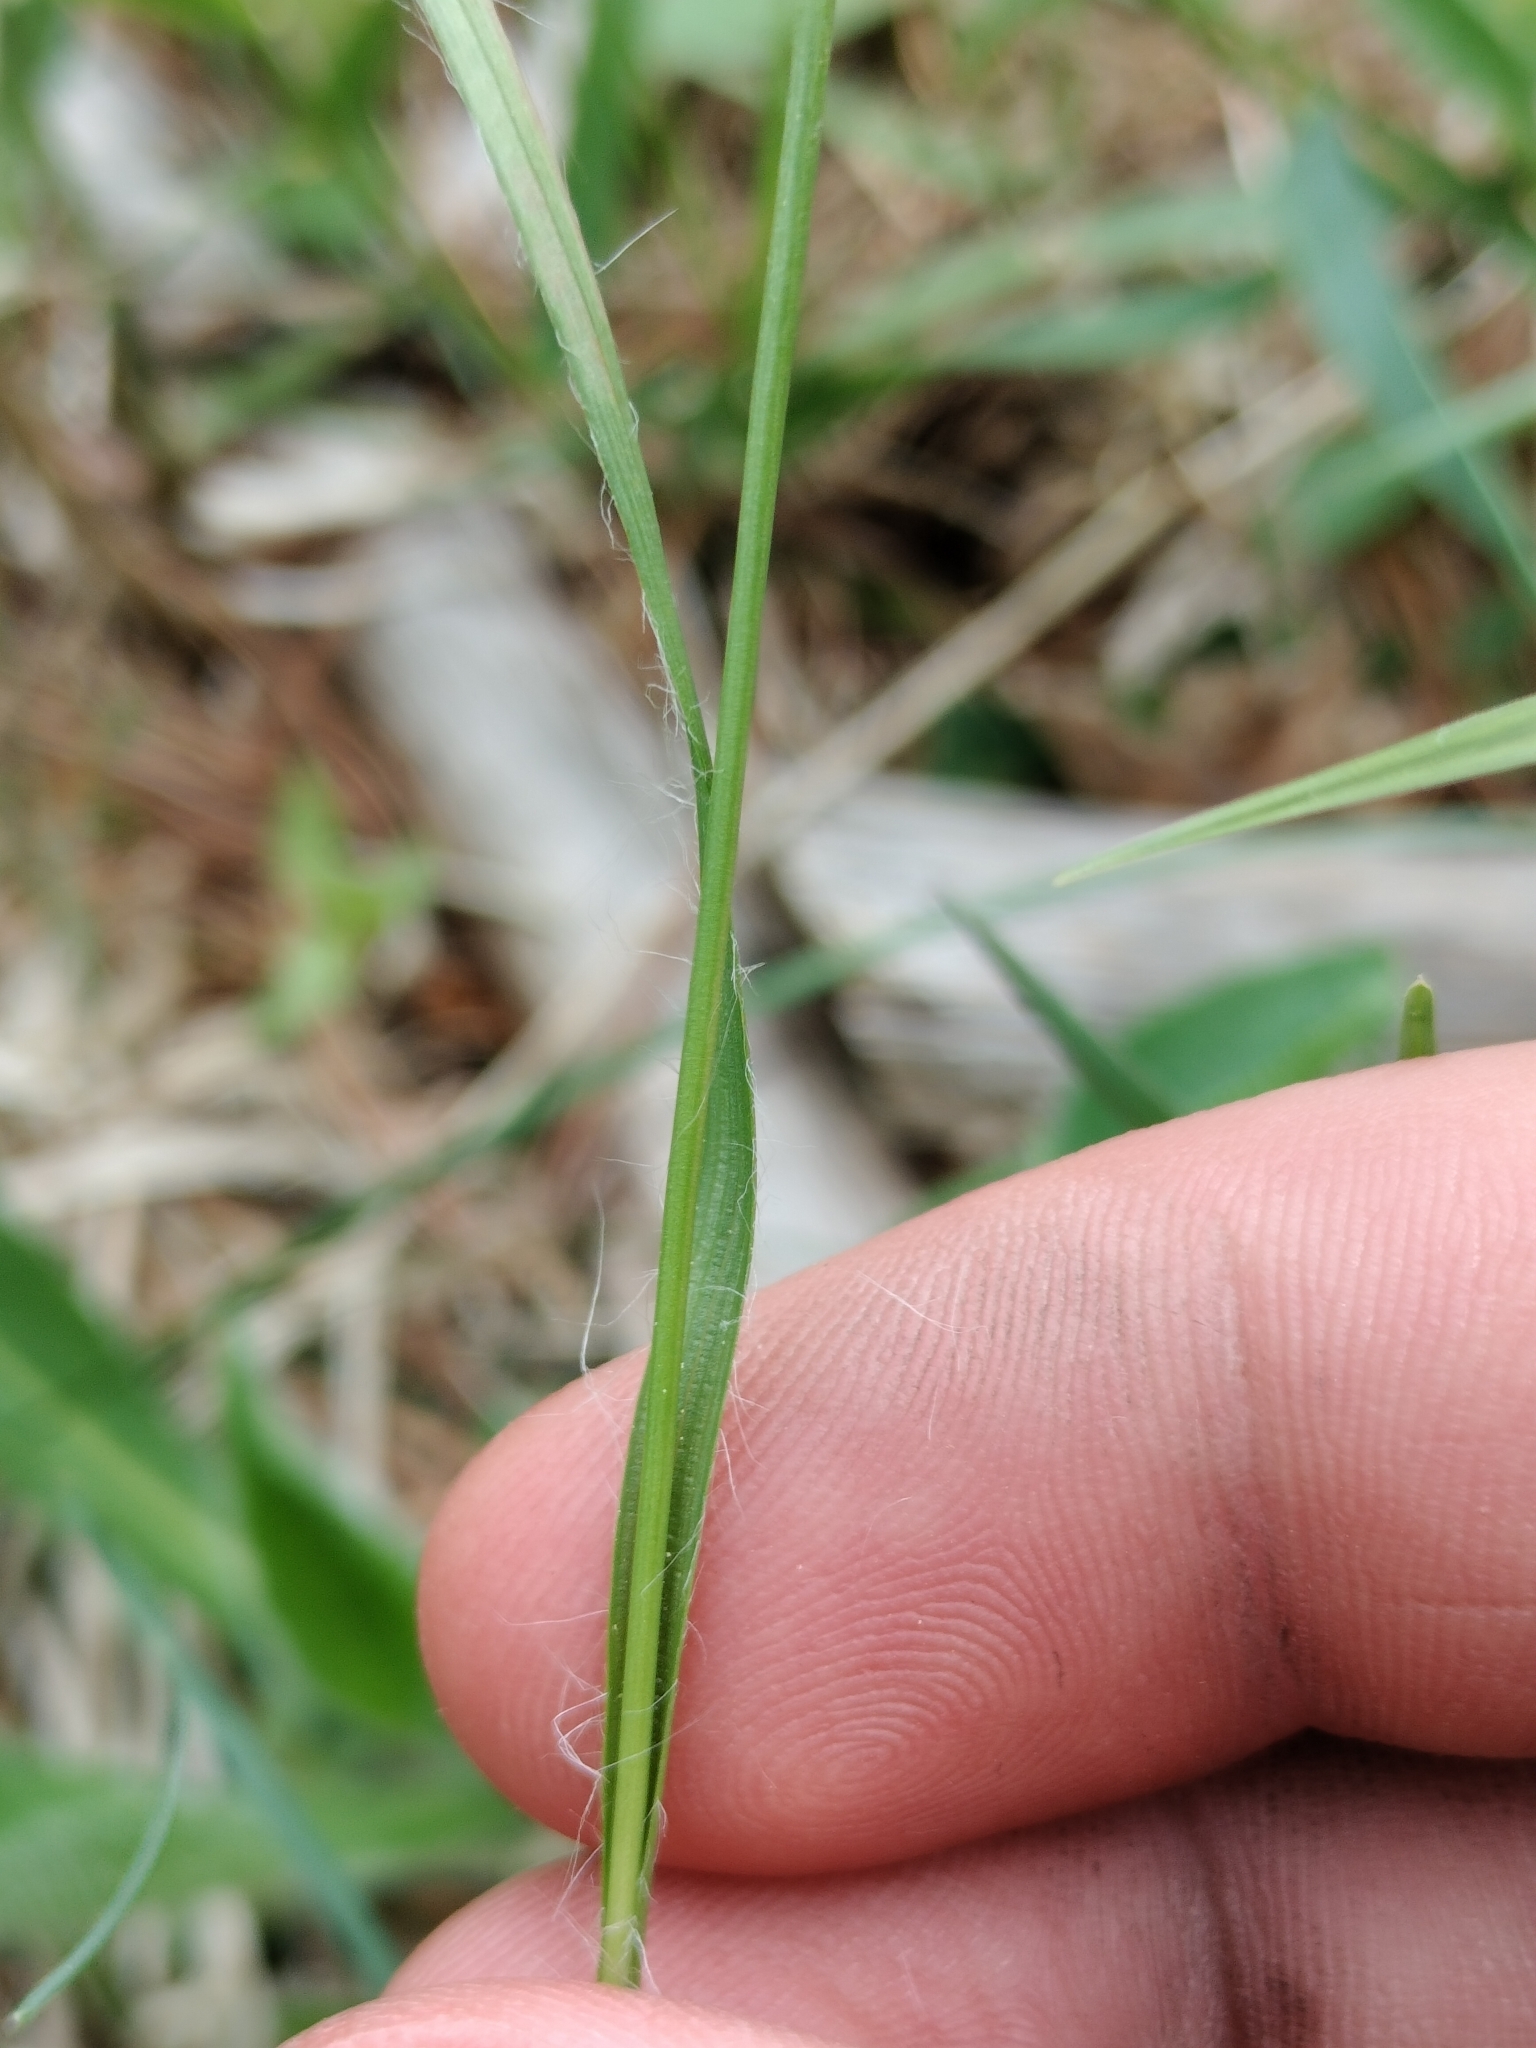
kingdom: Plantae
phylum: Tracheophyta
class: Liliopsida
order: Poales
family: Juncaceae
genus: Luzula
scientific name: Luzula multiflora
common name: Heath wood-rush
